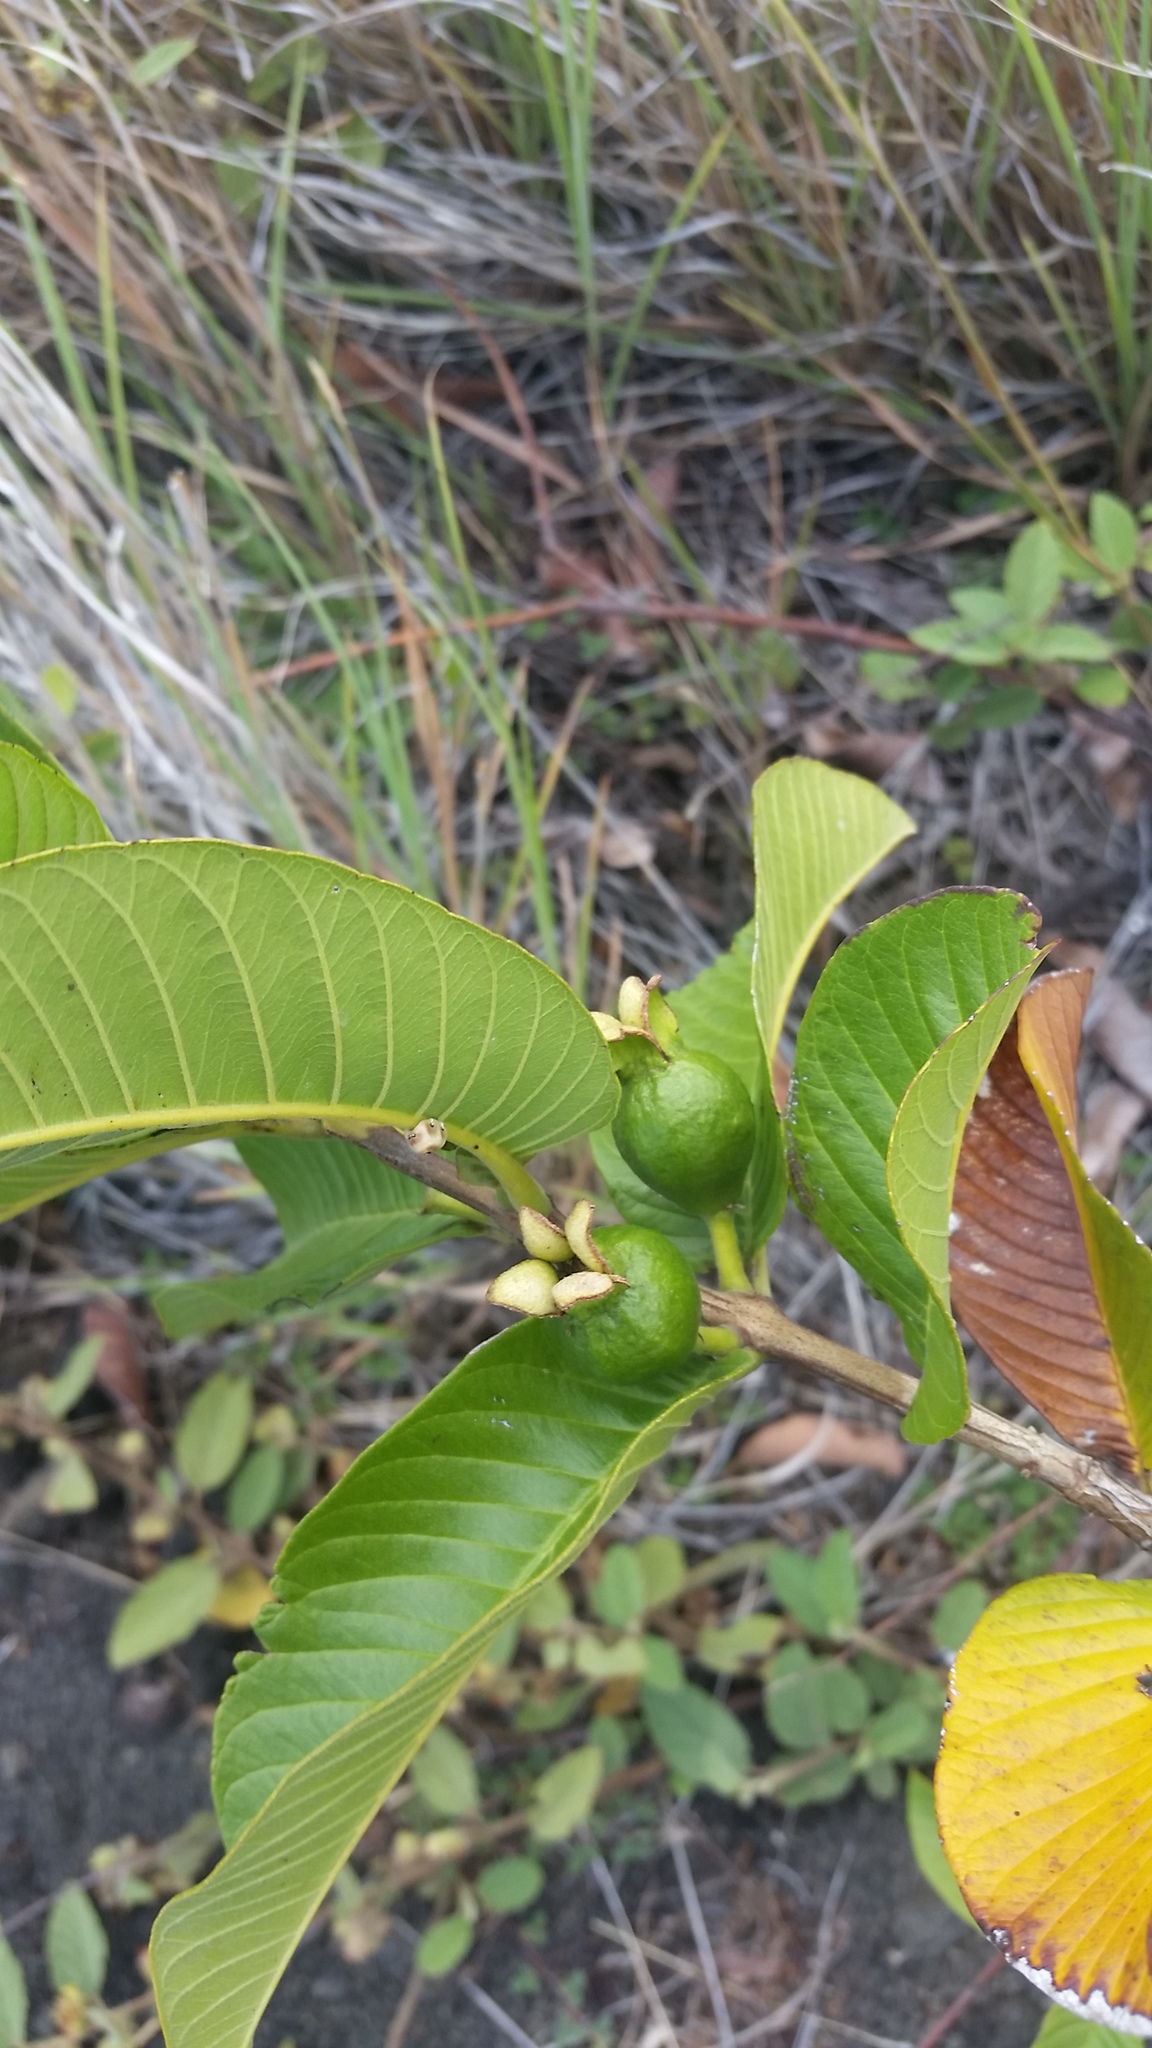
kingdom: Plantae
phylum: Tracheophyta
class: Magnoliopsida
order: Myrtales
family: Myrtaceae
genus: Psidium
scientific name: Psidium guajava
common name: Guava
